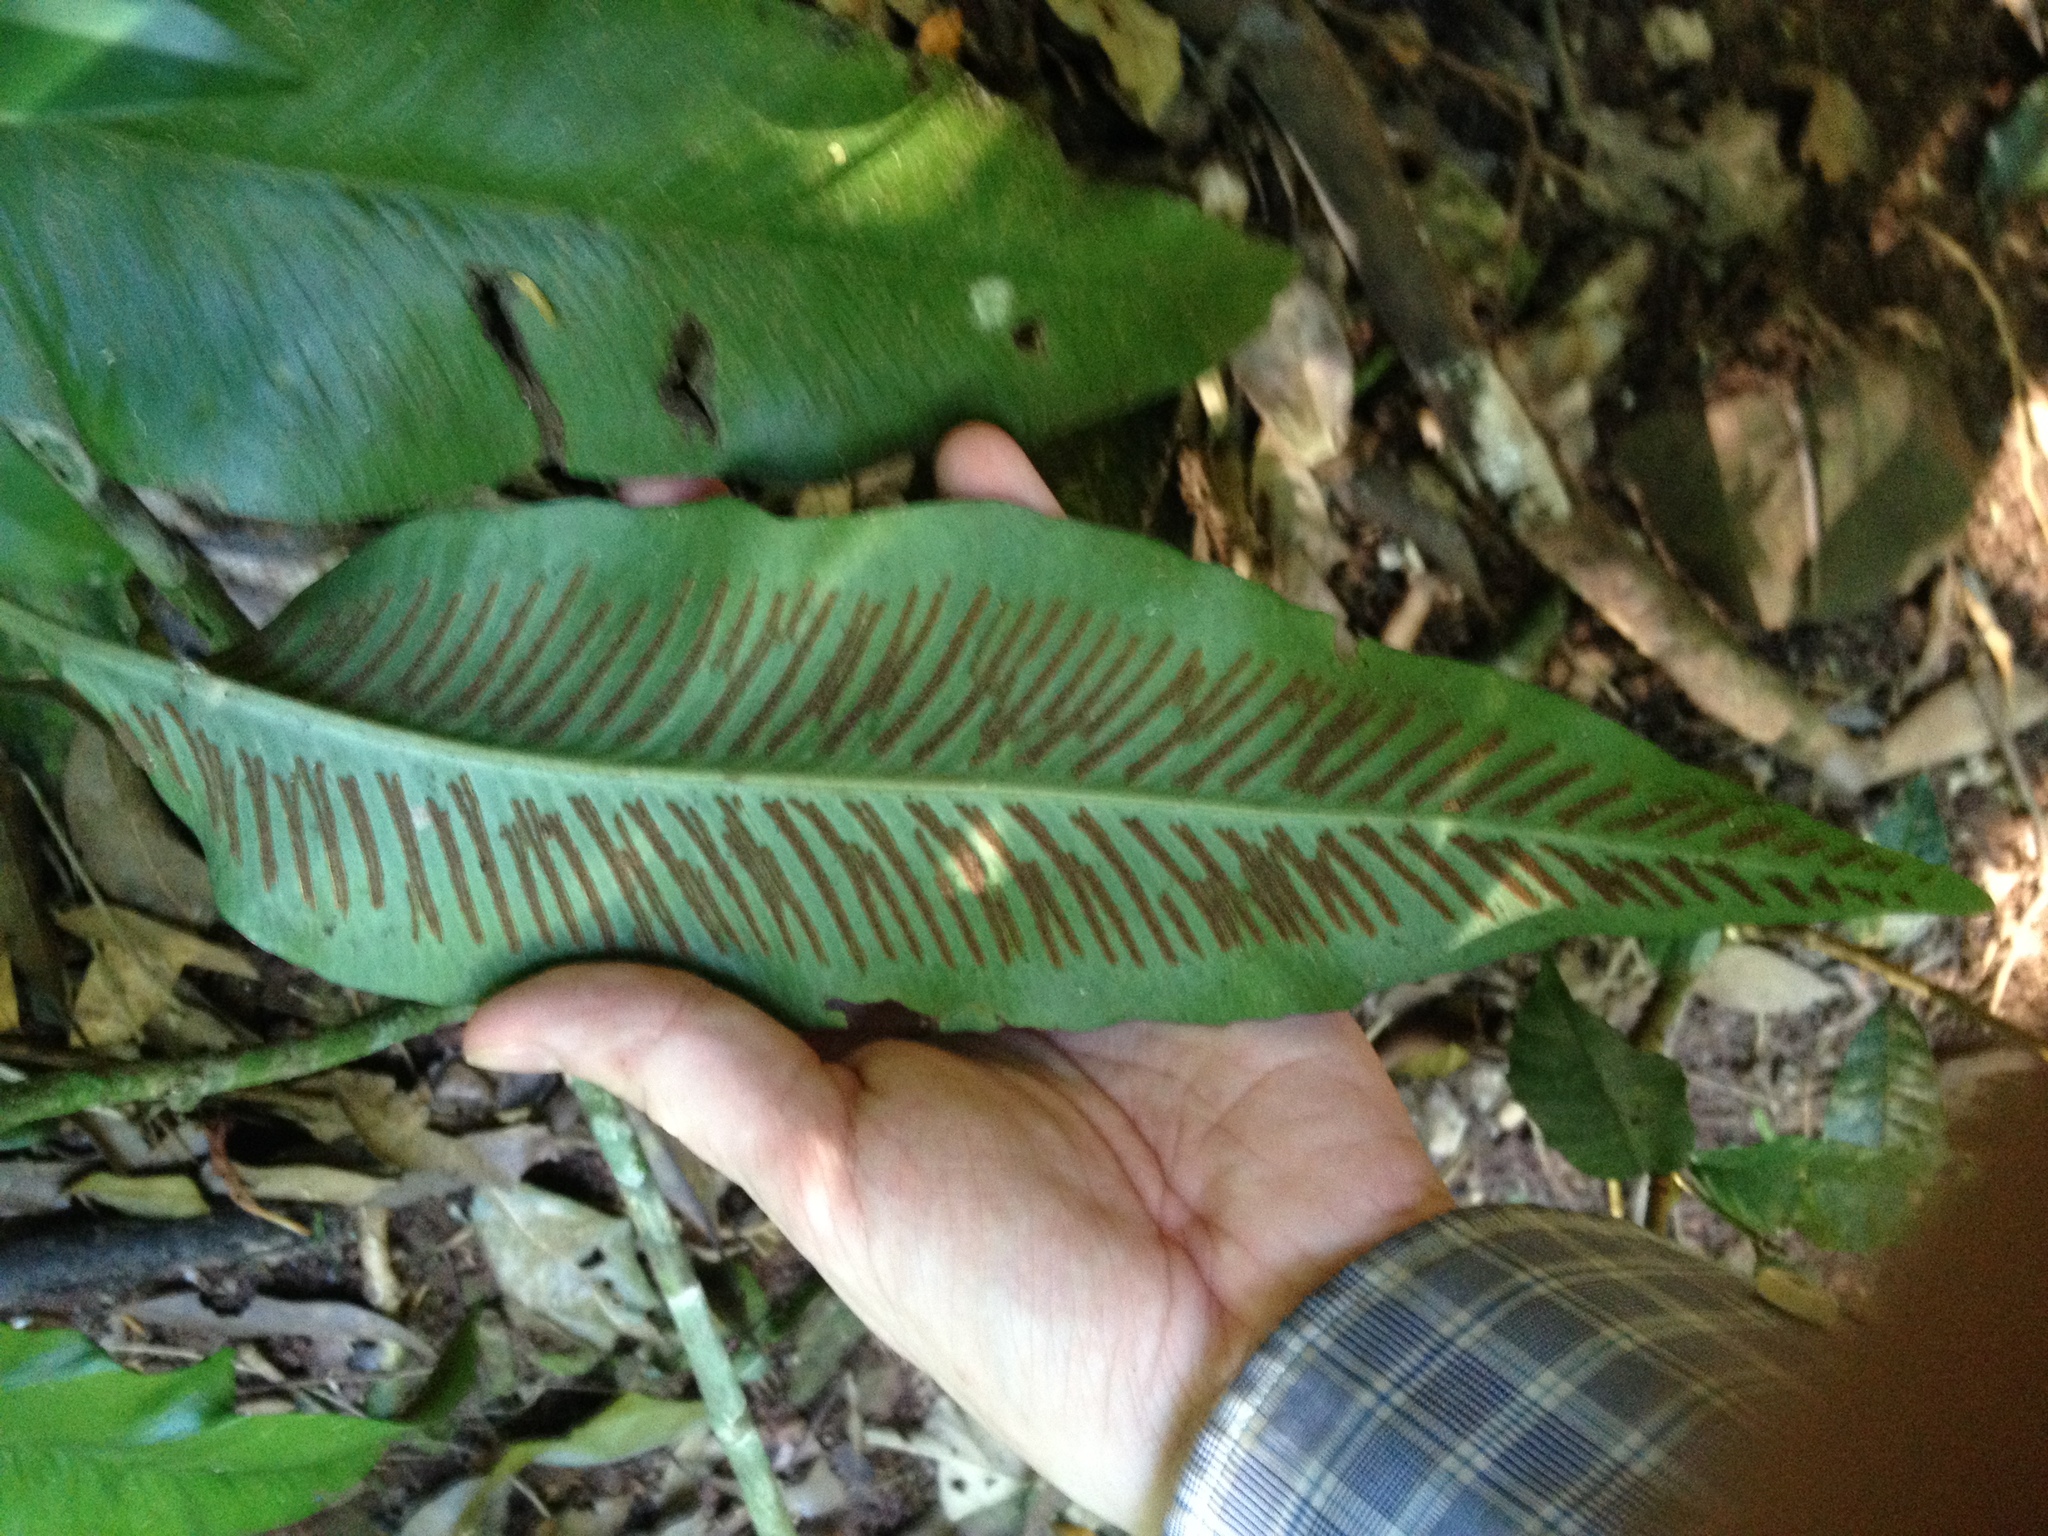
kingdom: Plantae
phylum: Tracheophyta
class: Polypodiopsida
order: Polypodiales
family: Aspleniaceae
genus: Asplenium
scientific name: Asplenium balansae
